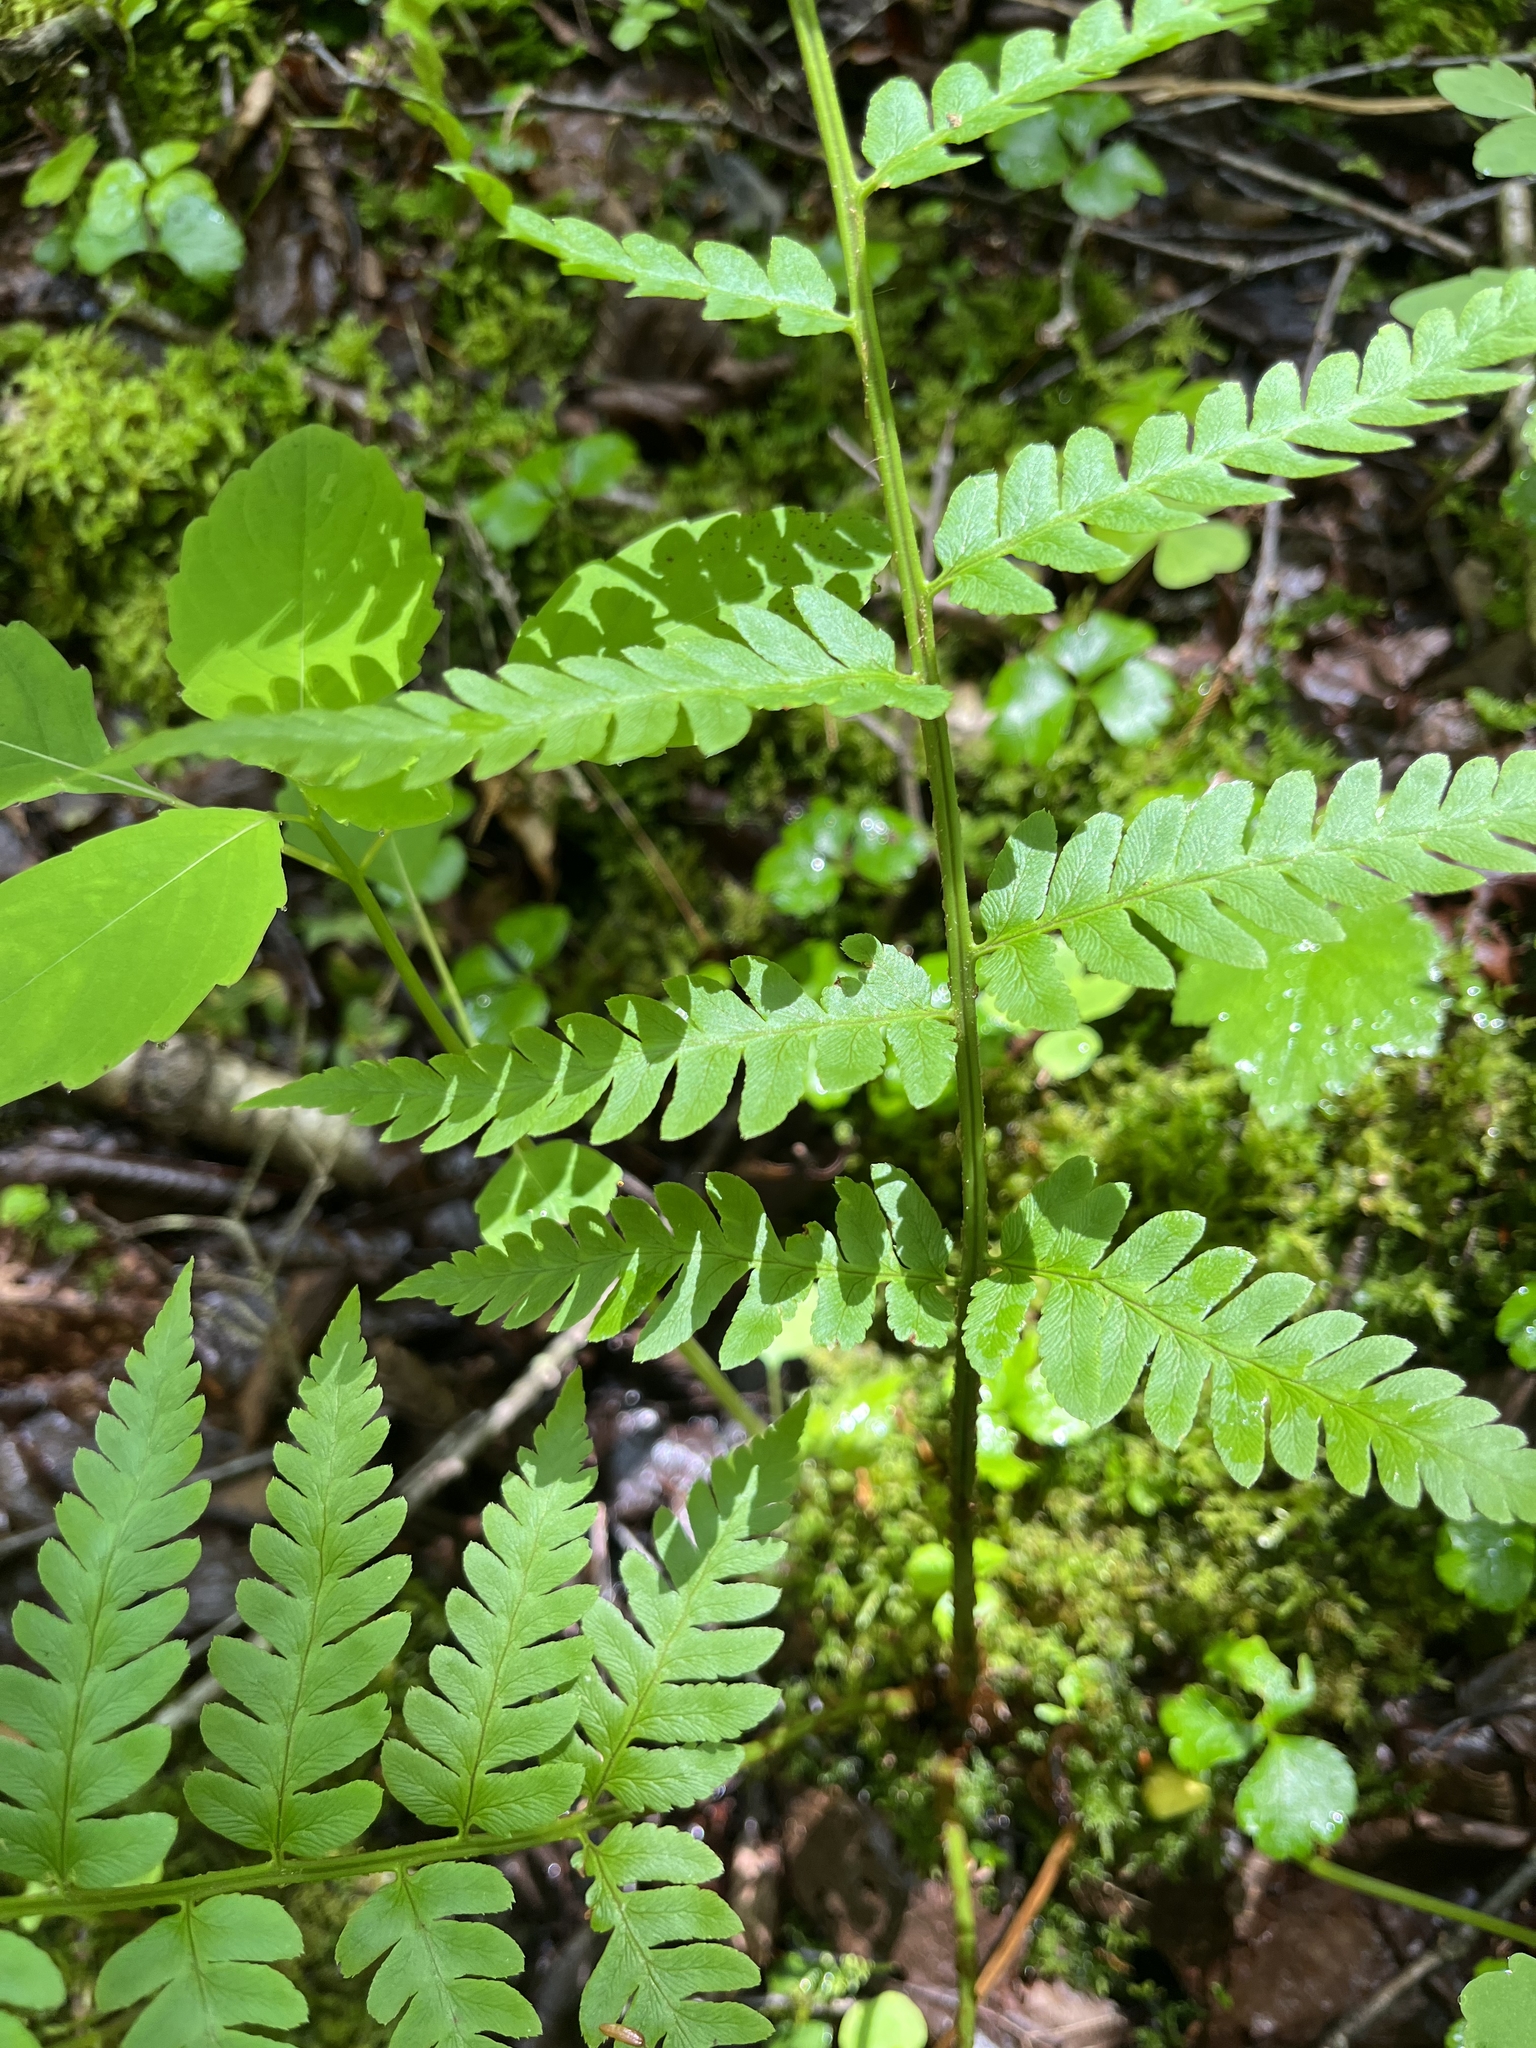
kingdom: Plantae
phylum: Tracheophyta
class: Polypodiopsida
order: Polypodiales
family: Dryopteridaceae
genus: Dryopteris
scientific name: Dryopteris clintoniana
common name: Clinton's wood fern
